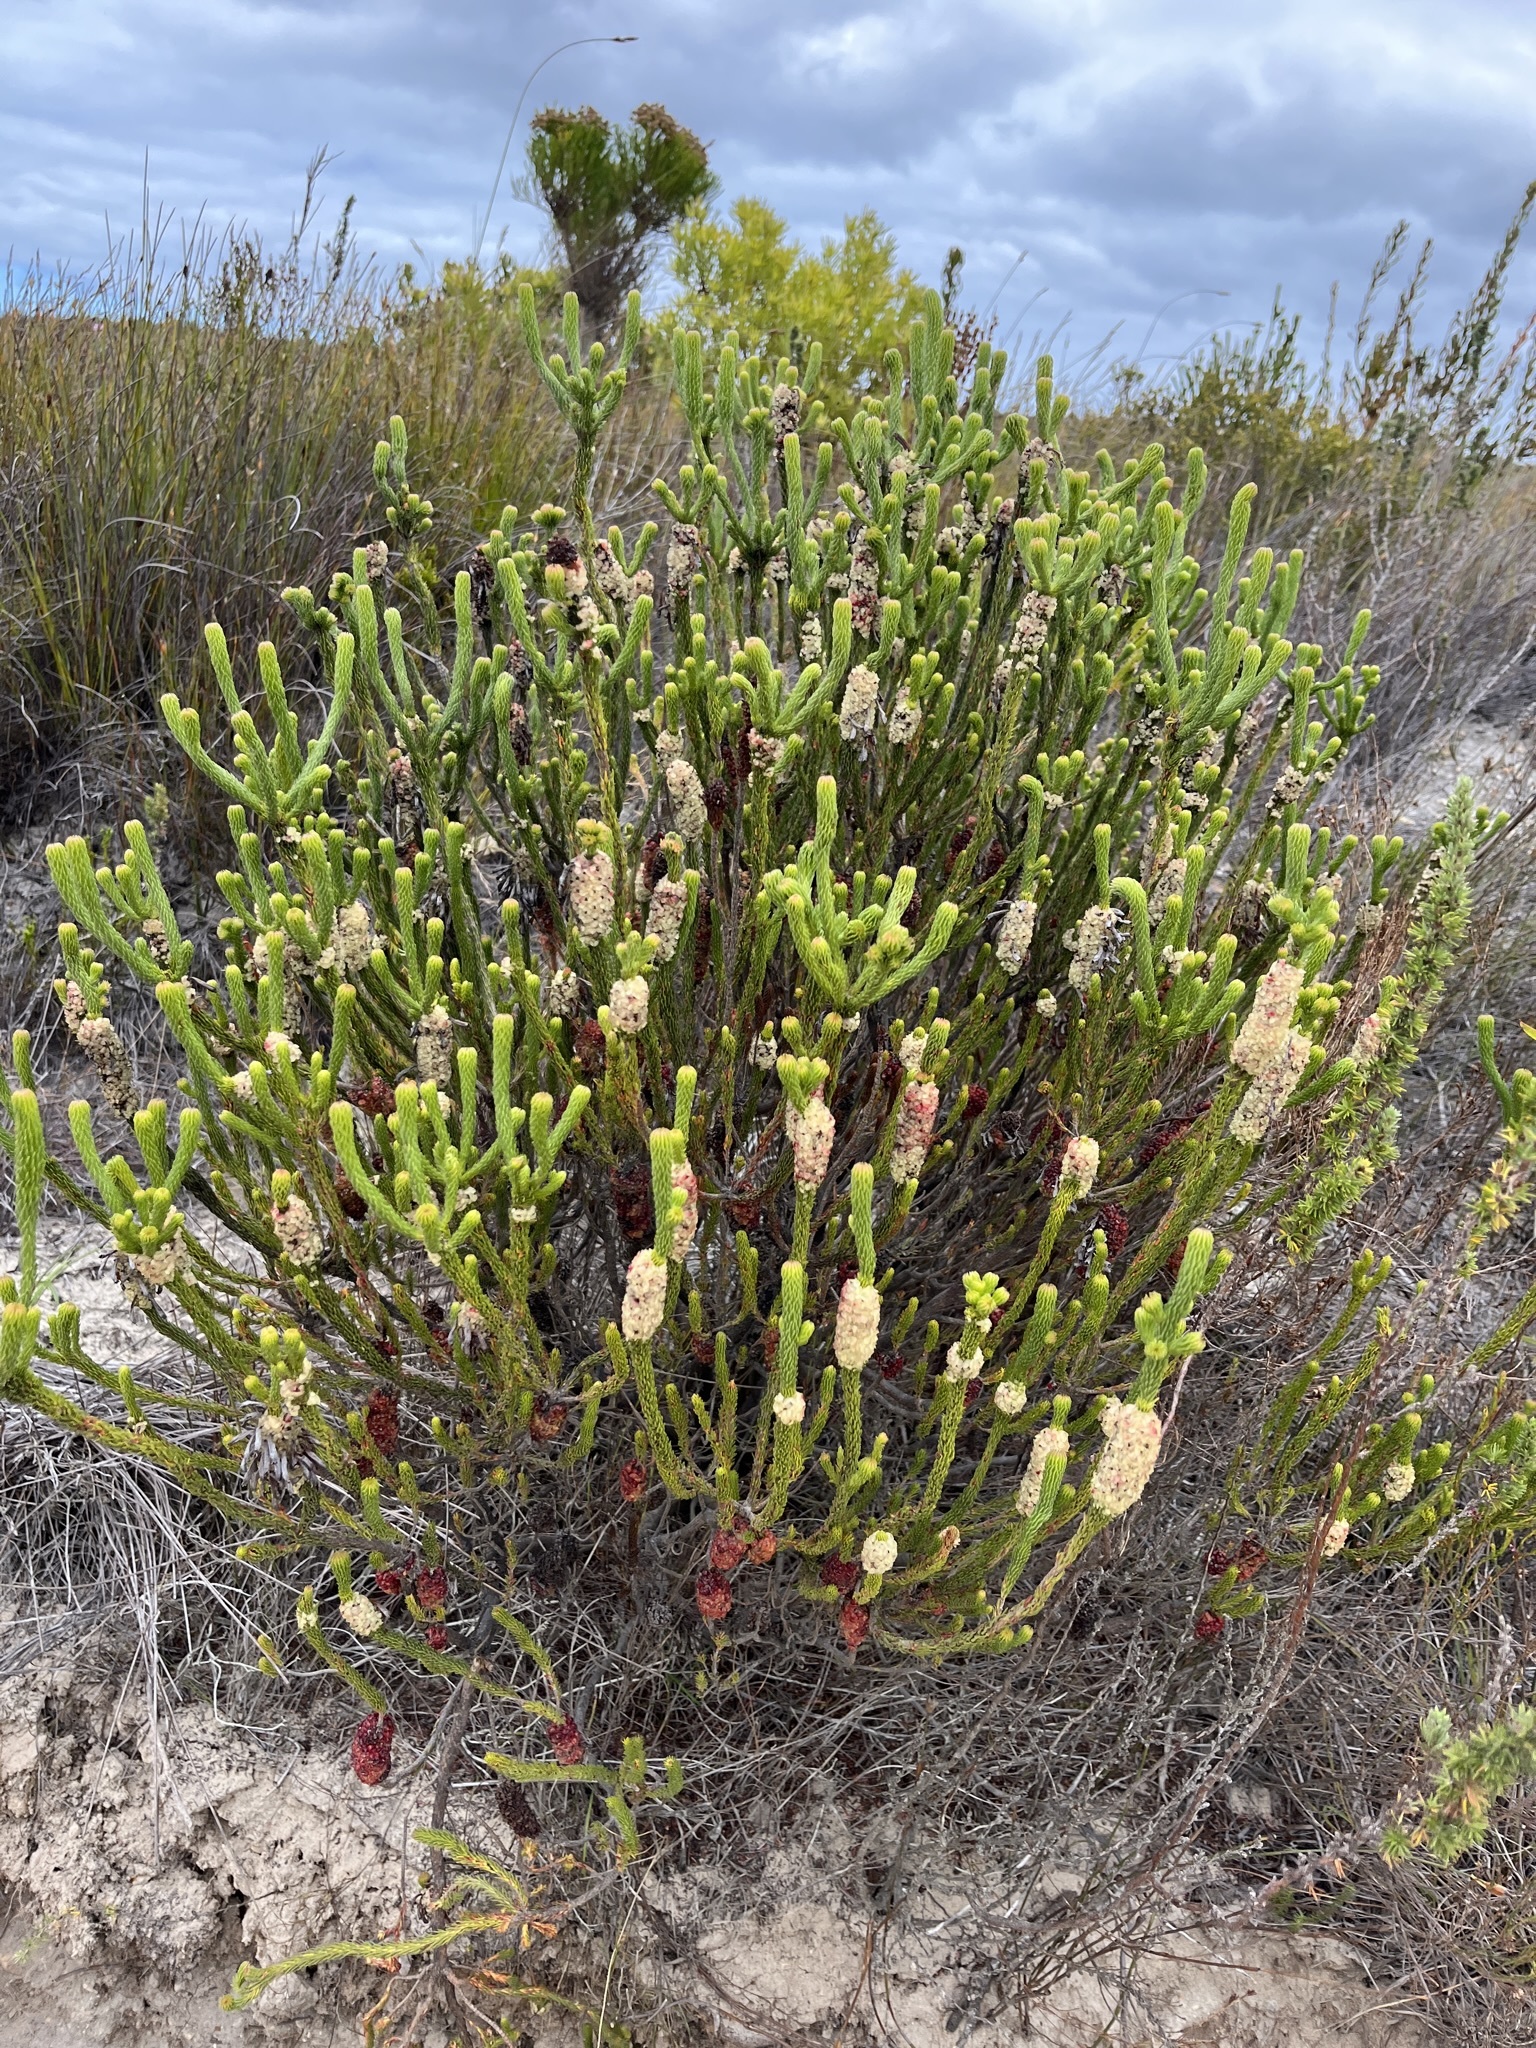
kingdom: Plantae
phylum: Tracheophyta
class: Magnoliopsida
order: Ericales
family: Ericaceae
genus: Erica
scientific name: Erica sessiliflora
